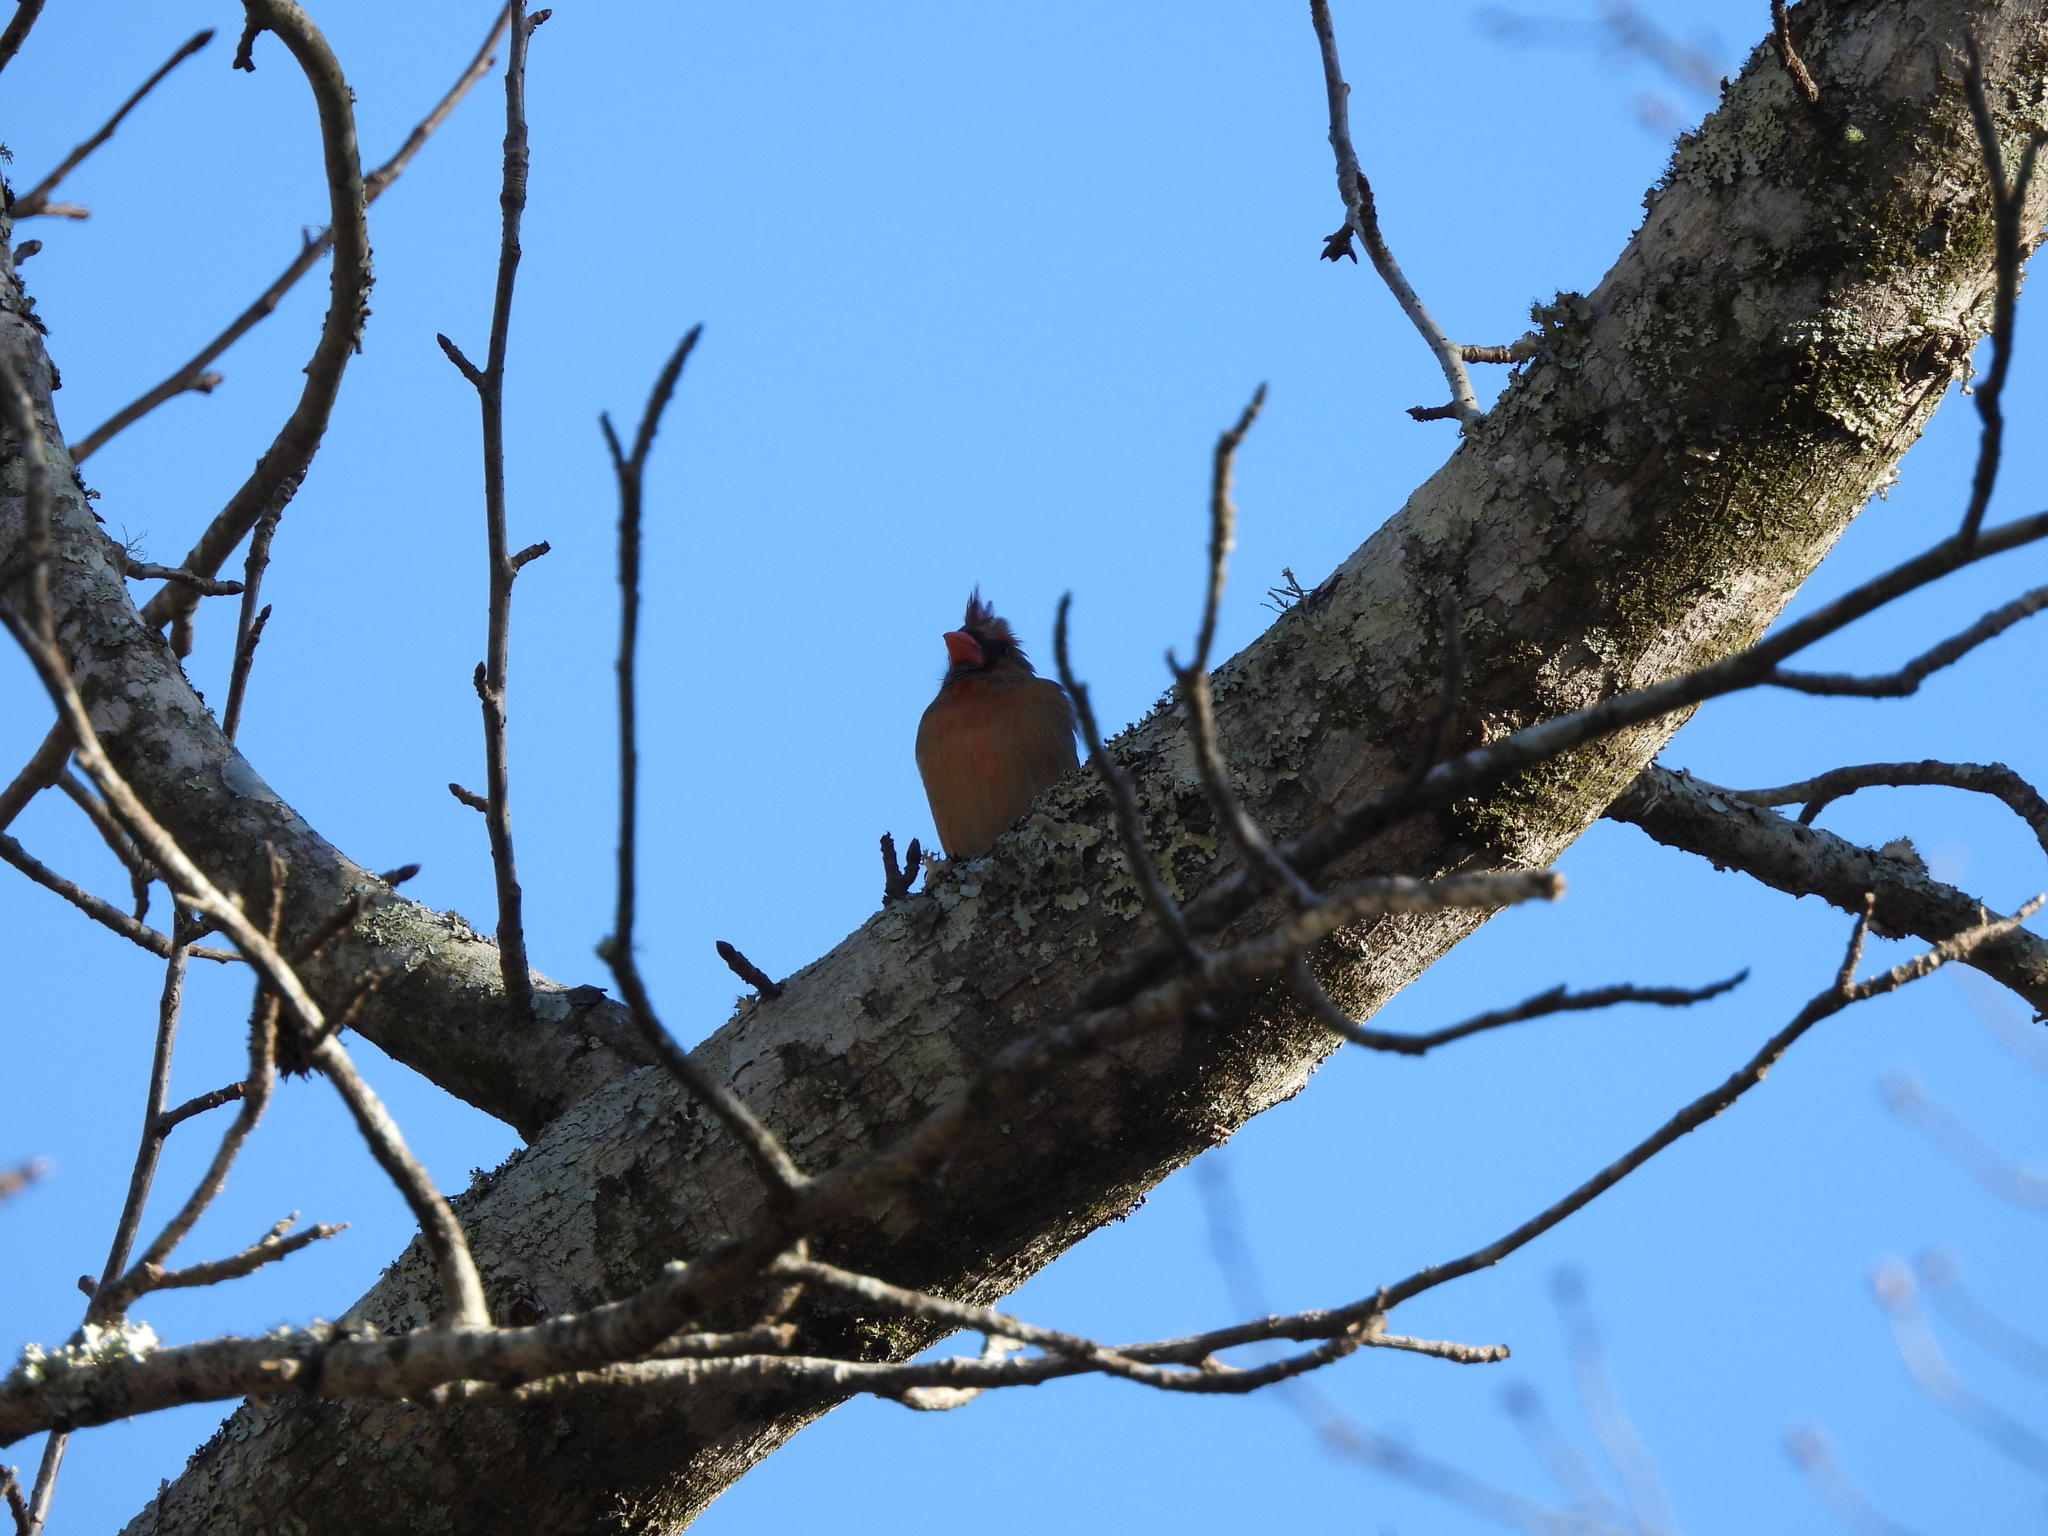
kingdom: Animalia
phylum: Chordata
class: Aves
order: Passeriformes
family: Cardinalidae
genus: Cardinalis
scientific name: Cardinalis cardinalis
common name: Northern cardinal
